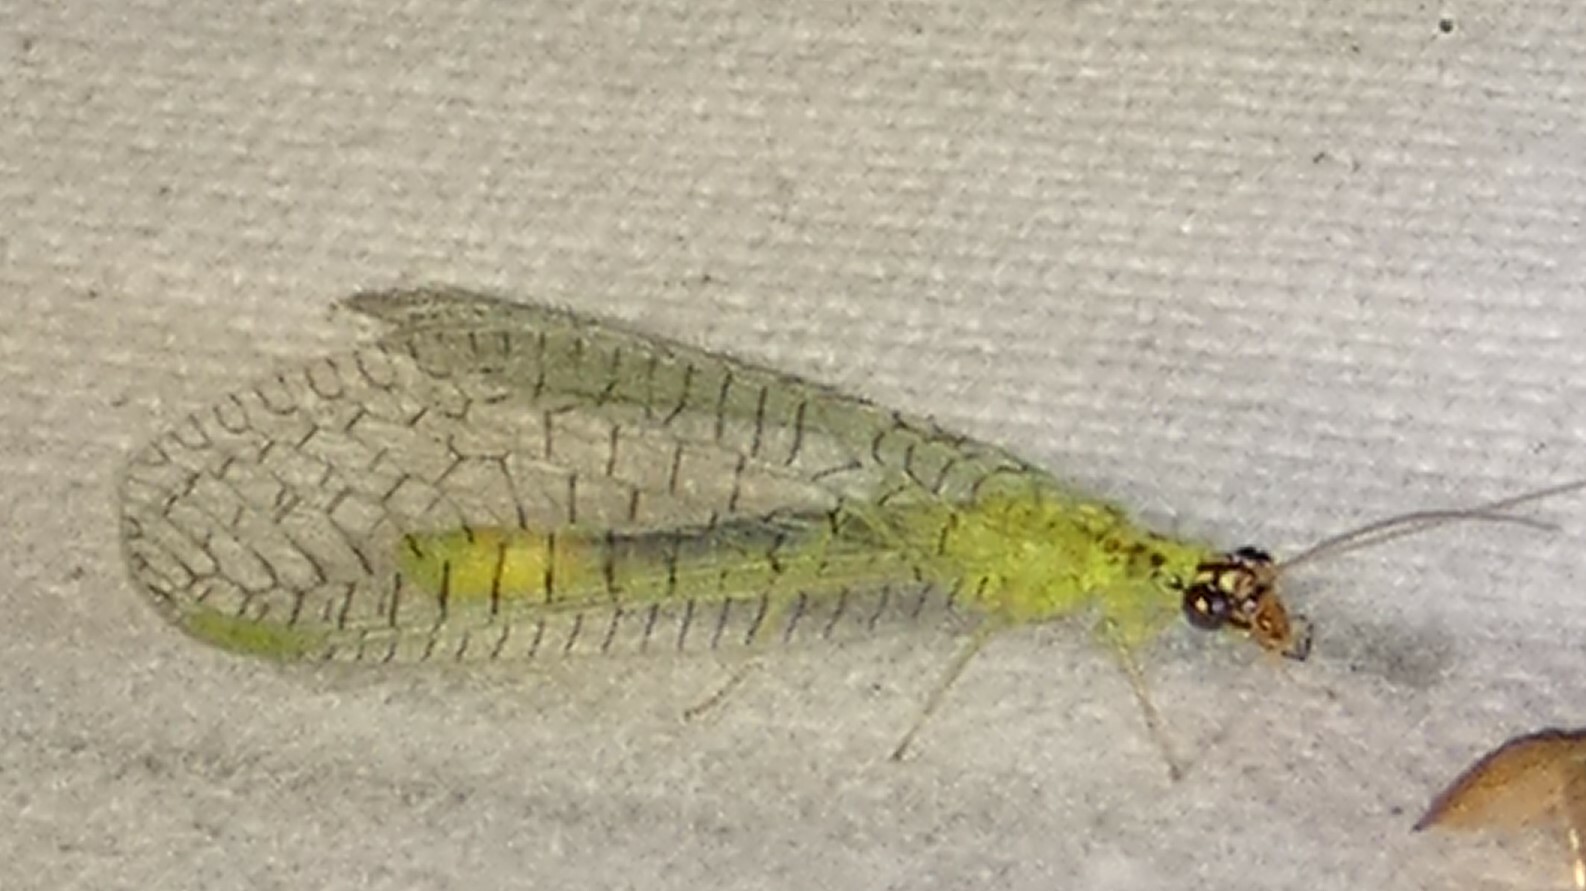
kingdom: Animalia
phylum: Arthropoda
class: Insecta
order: Neuroptera
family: Chrysopidae
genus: Chrysopa
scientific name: Chrysopa oculata
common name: Golden-eyed lacewing
